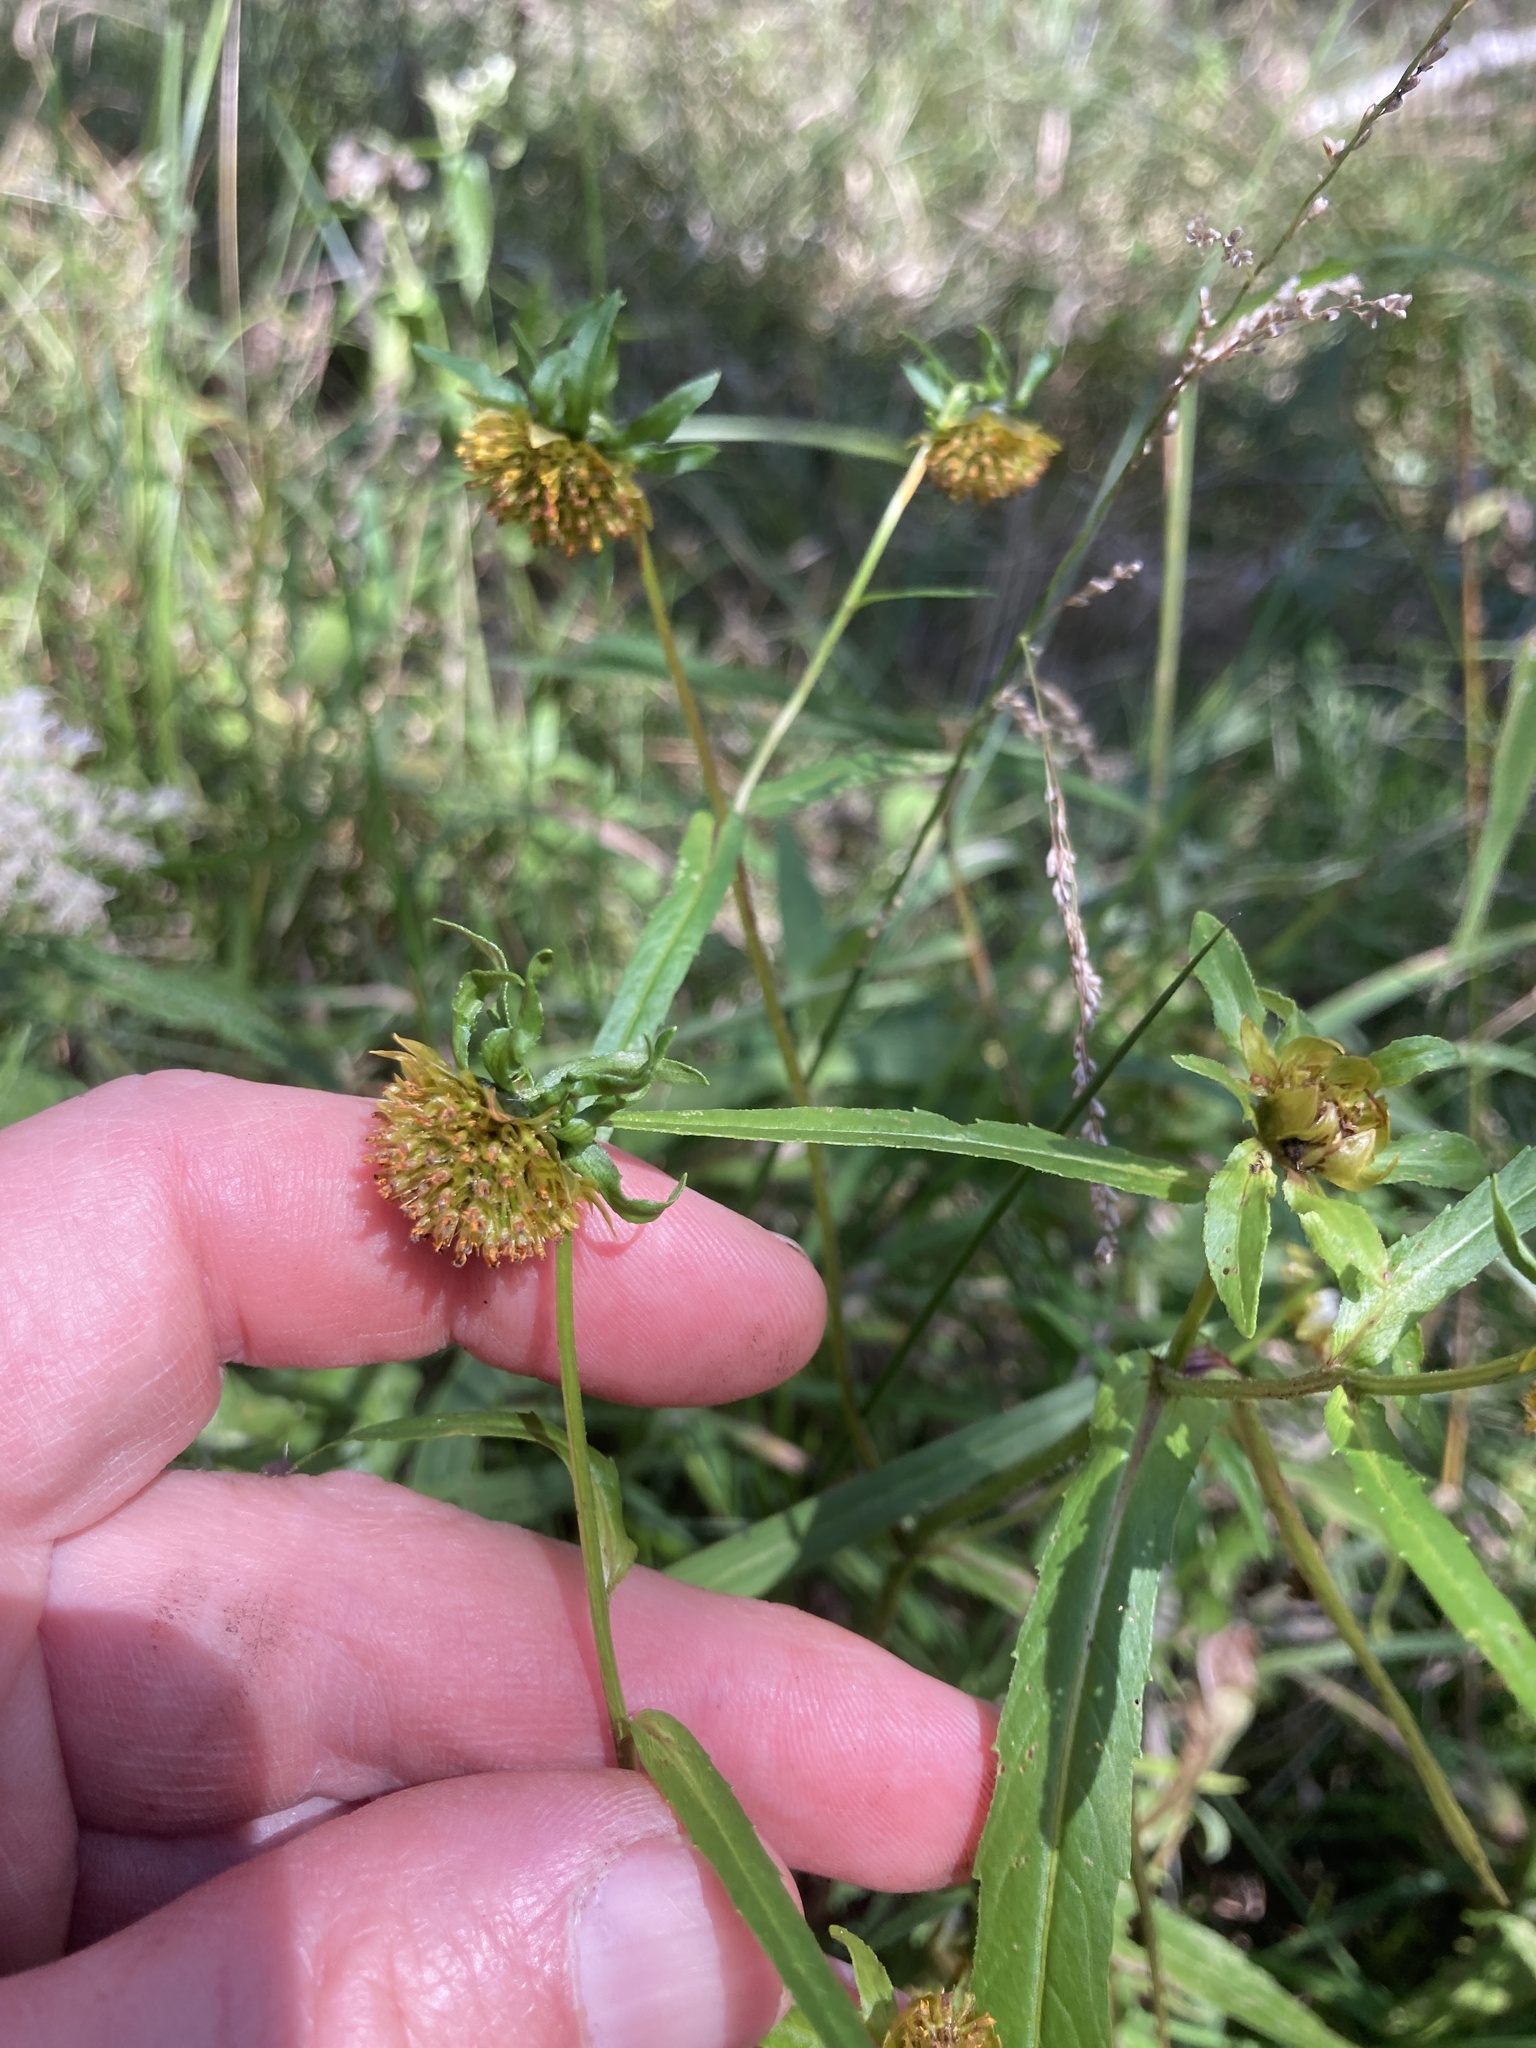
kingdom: Plantae
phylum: Tracheophyta
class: Magnoliopsida
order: Asterales
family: Asteraceae
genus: Bidens
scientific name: Bidens cernua
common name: Nodding bur-marigold
